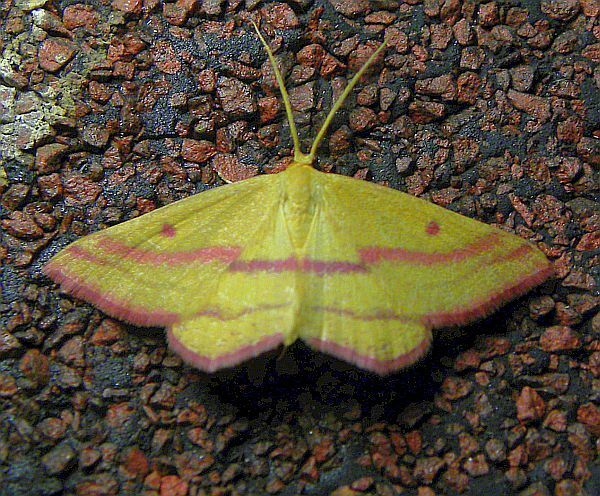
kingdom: Animalia
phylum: Arthropoda
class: Insecta
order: Lepidoptera
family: Geometridae
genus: Haematopis
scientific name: Haematopis grataria
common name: Chickweed geometer
